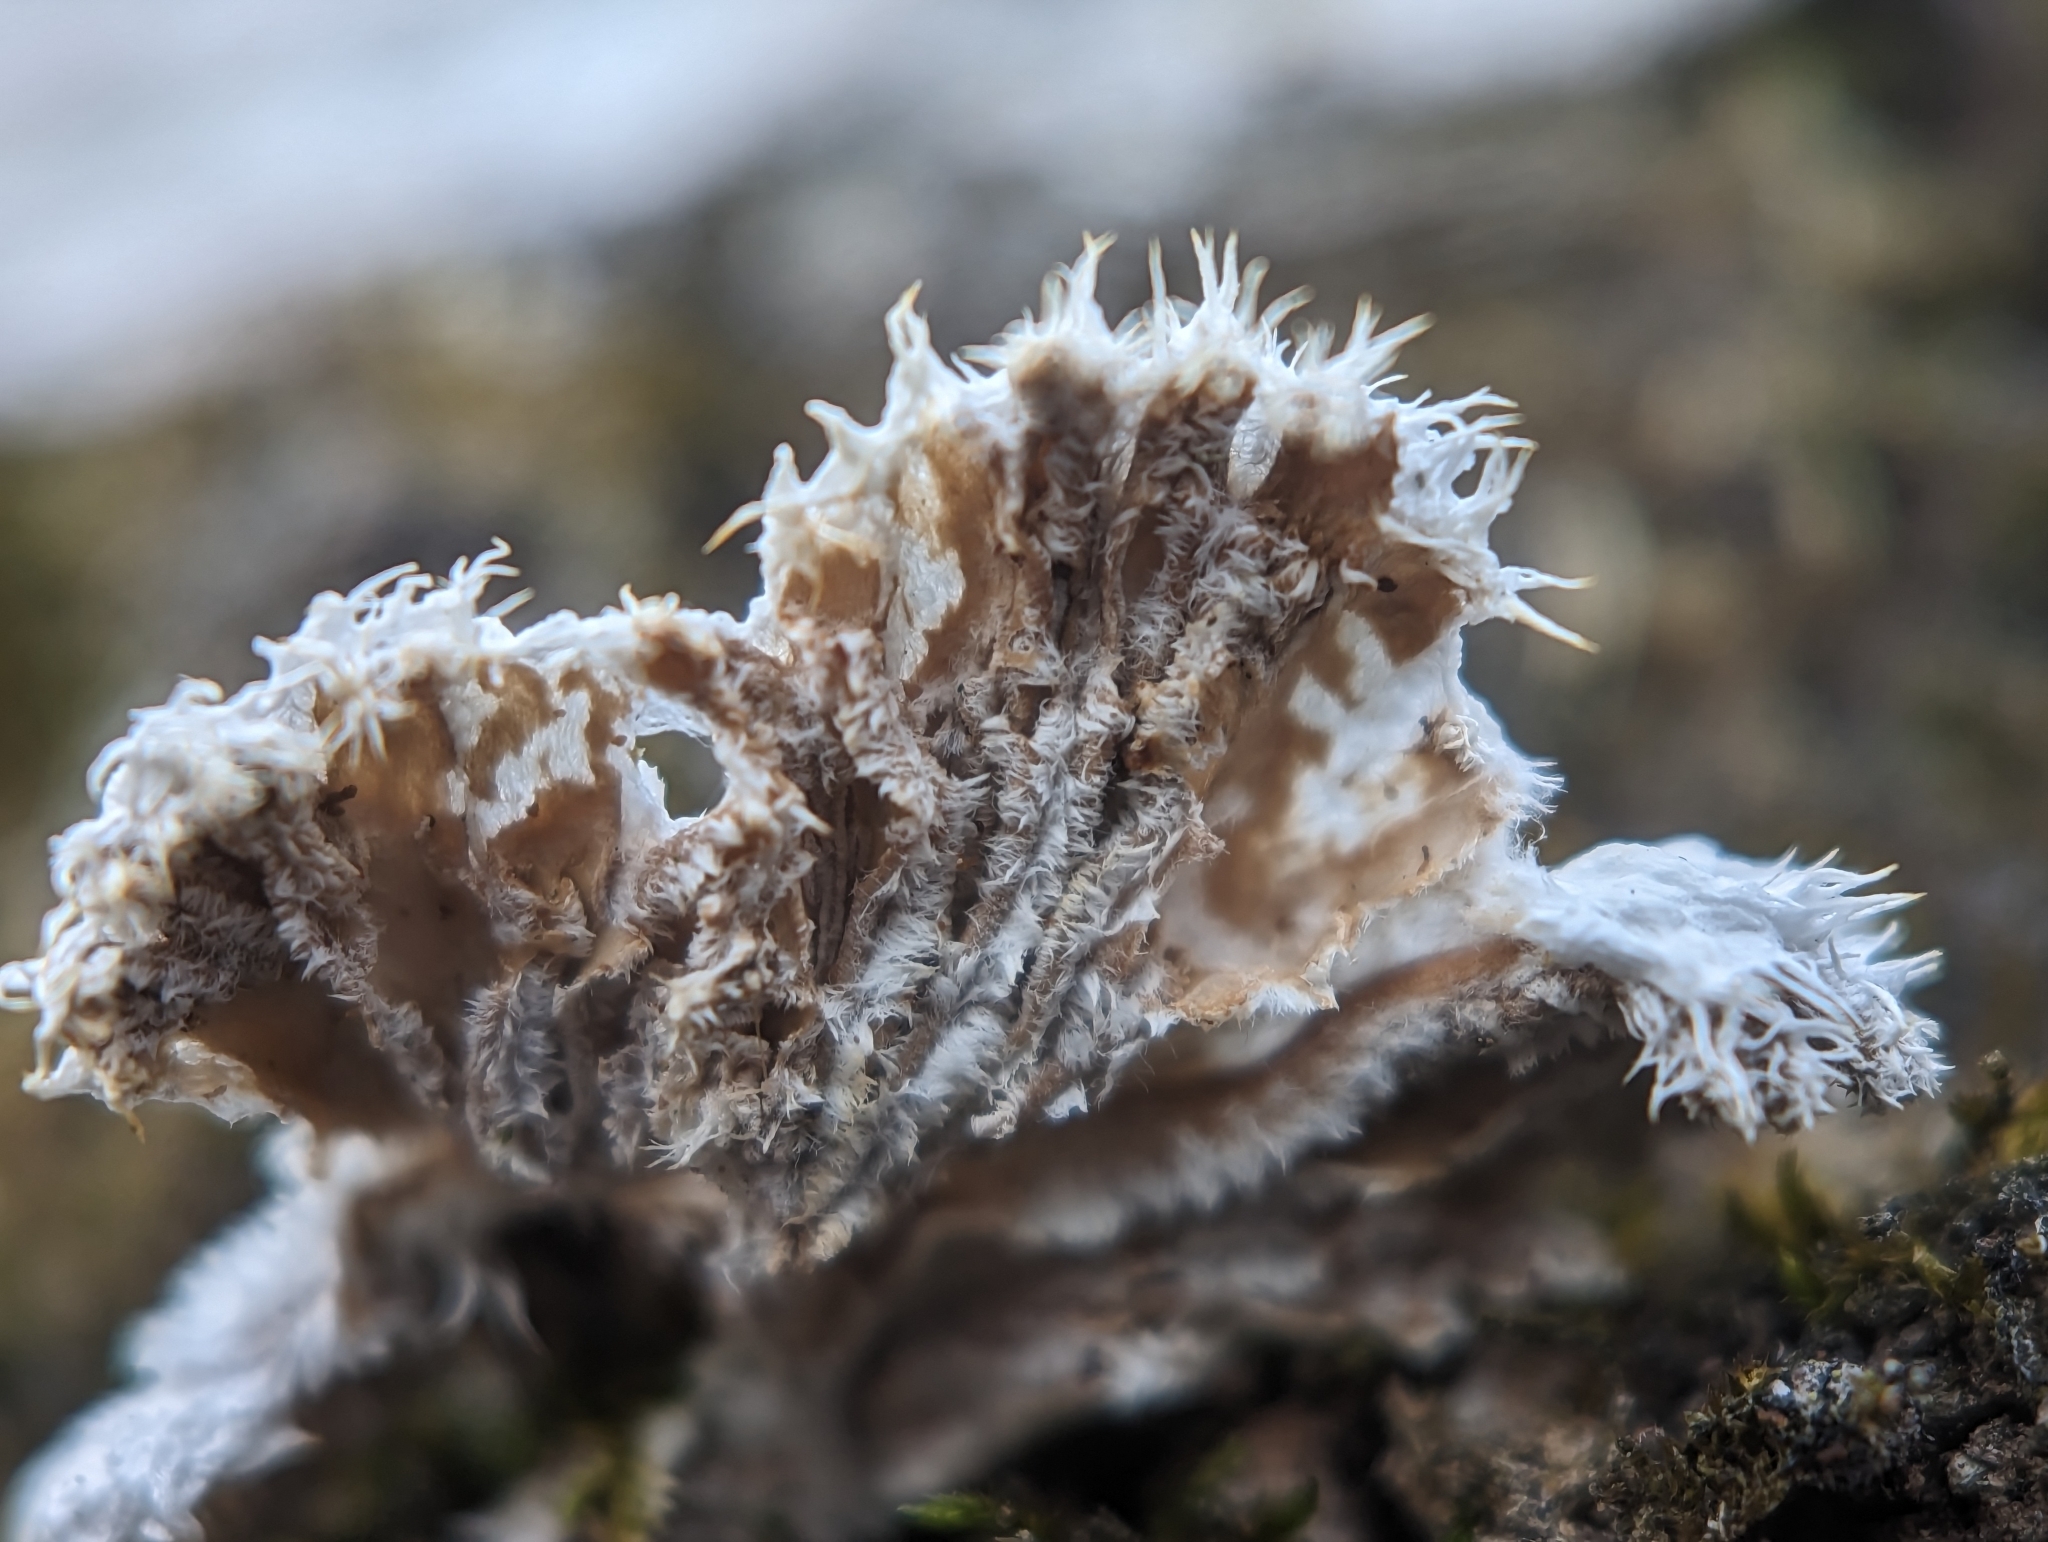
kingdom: Fungi
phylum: Basidiomycota
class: Agaricomycetes
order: Agaricales
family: Schizophyllaceae
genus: Schizophyllum
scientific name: Schizophyllum commune
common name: Common porecrust
